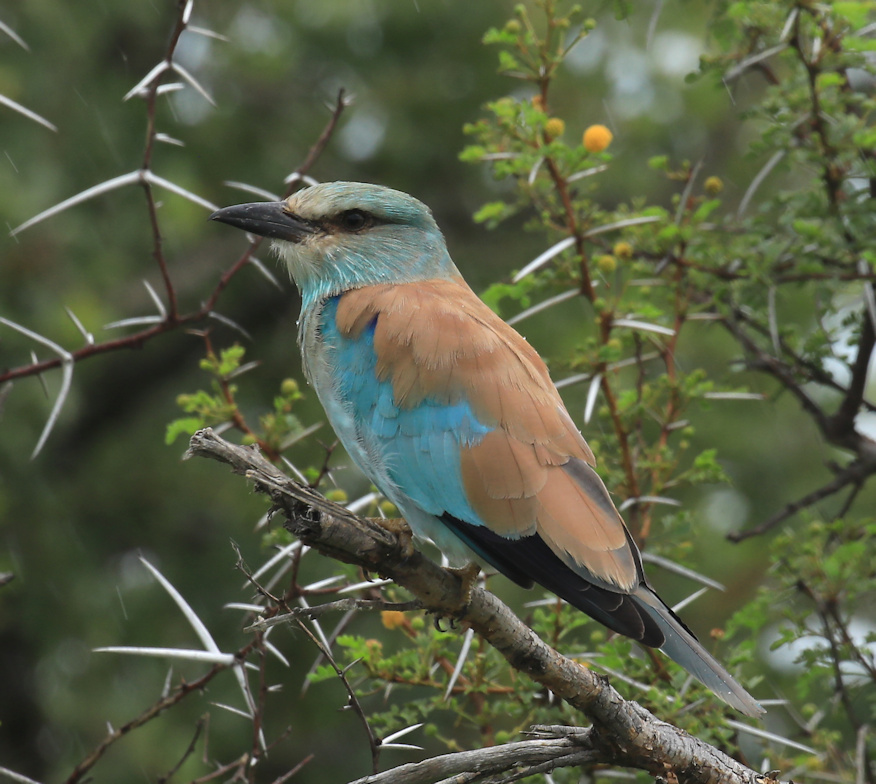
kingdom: Animalia
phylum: Chordata
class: Aves
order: Coraciiformes
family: Coraciidae
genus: Coracias
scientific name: Coracias garrulus
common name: European roller
